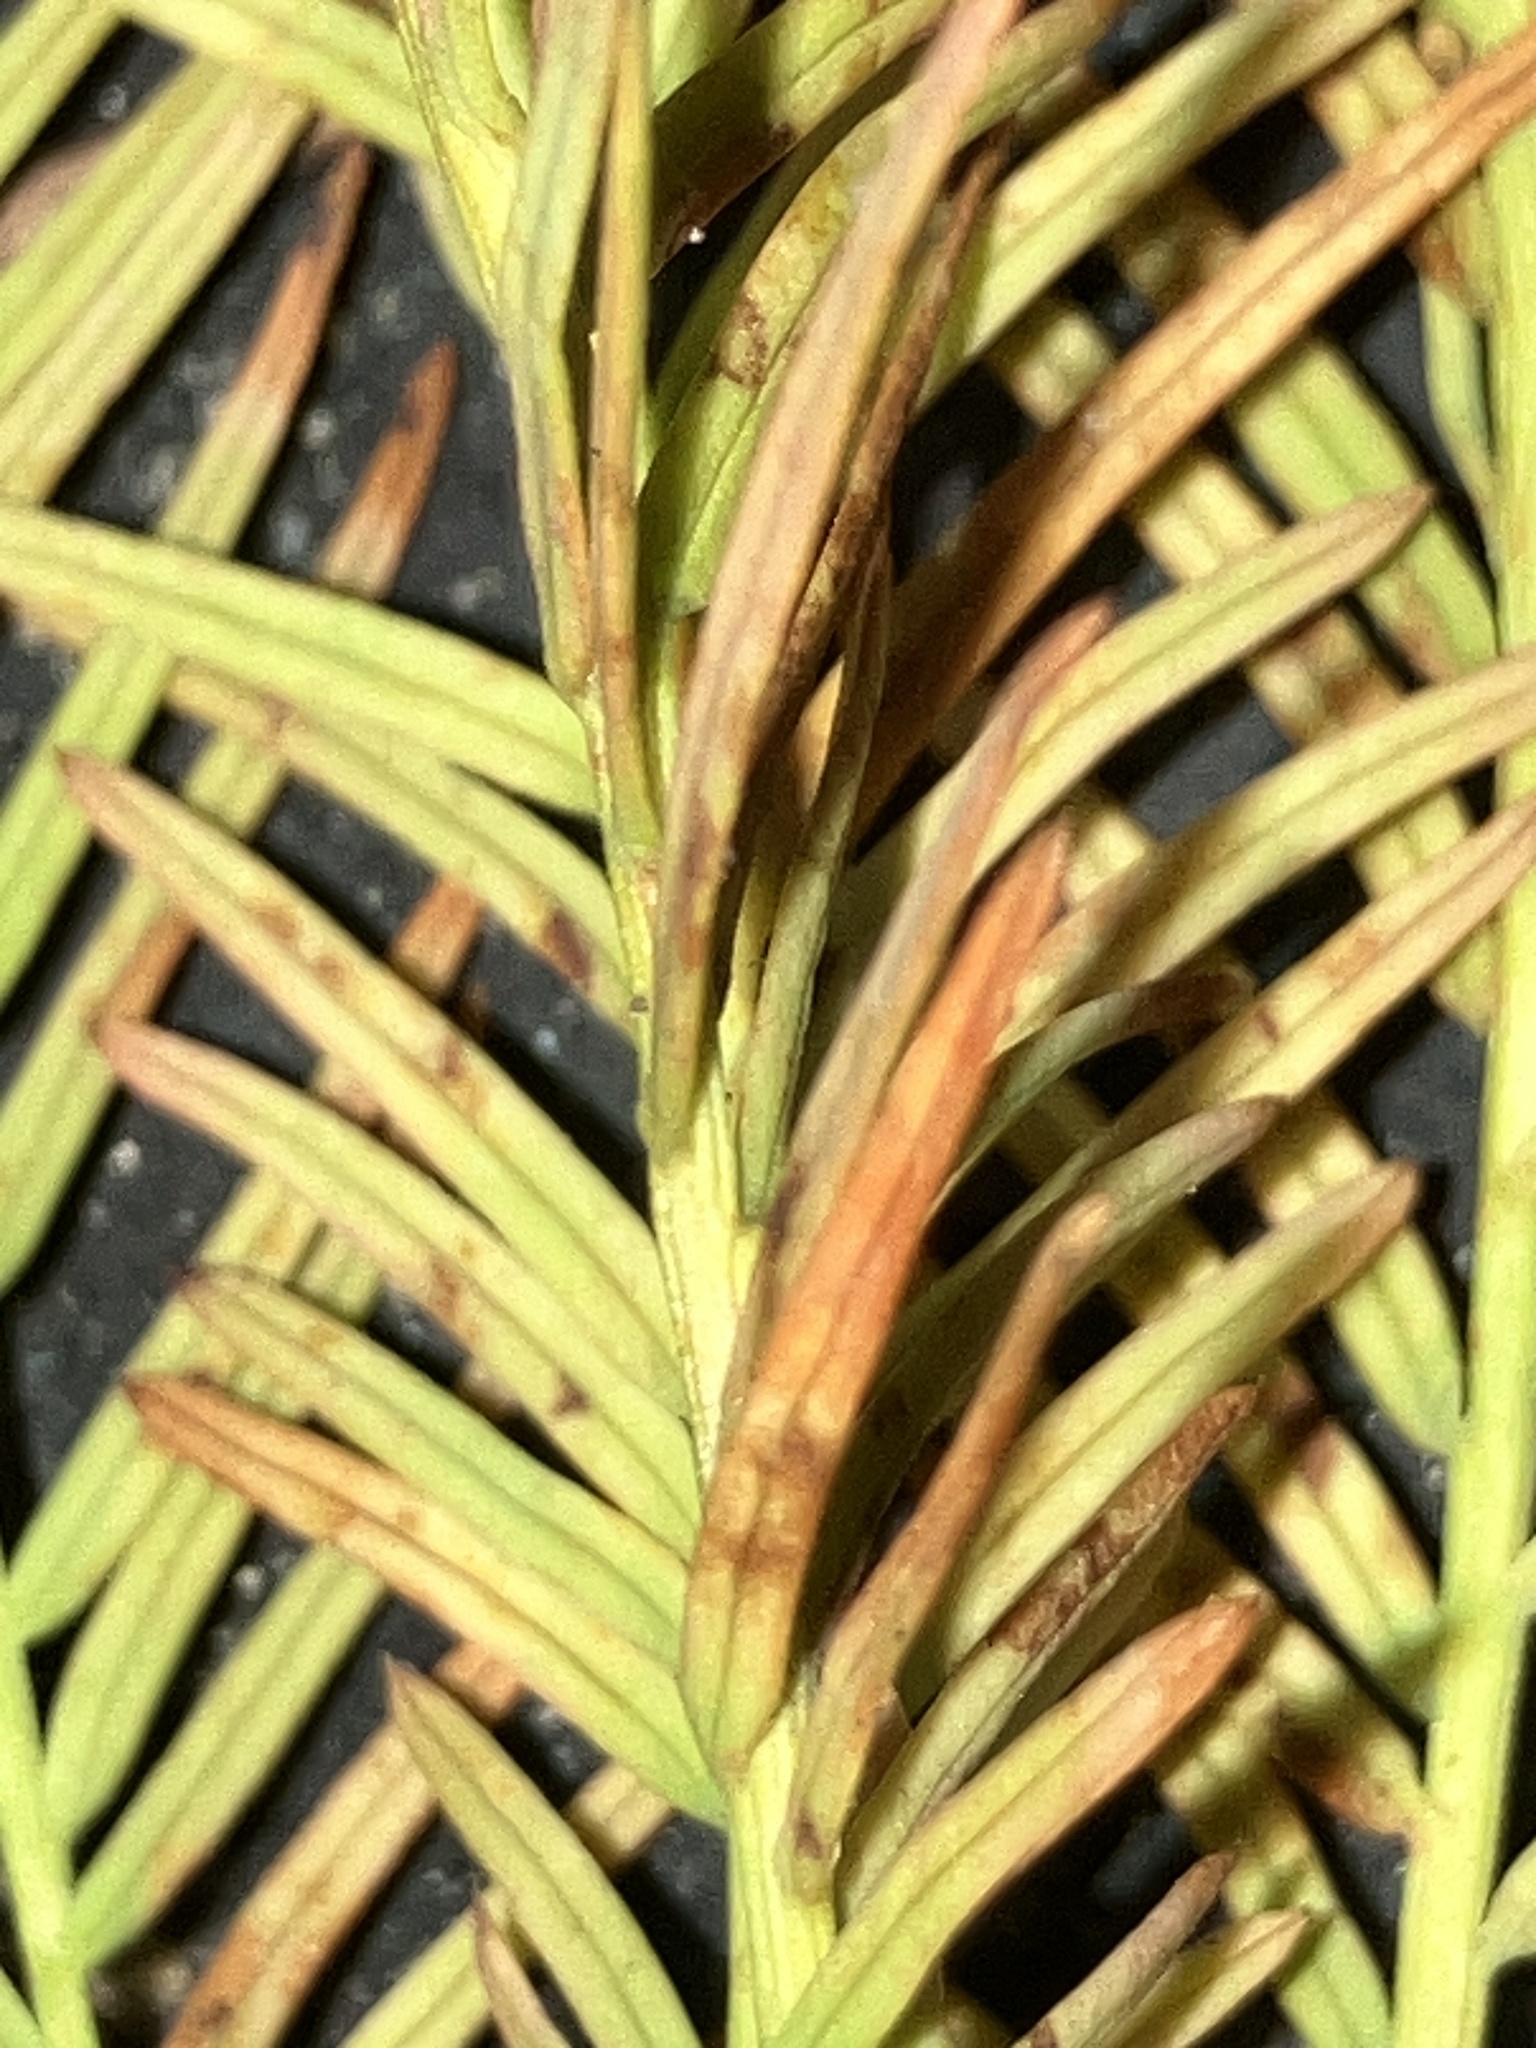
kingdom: Plantae
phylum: Tracheophyta
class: Pinopsida
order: Pinales
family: Cupressaceae
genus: Taxodium
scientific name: Taxodium distichum
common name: Bald cypress
